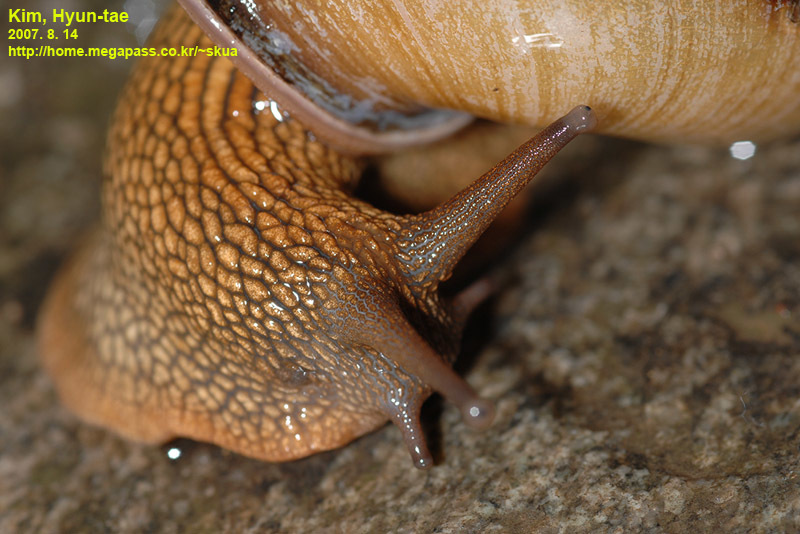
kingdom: Animalia
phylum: Mollusca
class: Gastropoda
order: Stylommatophora
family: Camaenidae
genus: Nesiohelix
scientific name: Nesiohelix samarangae
